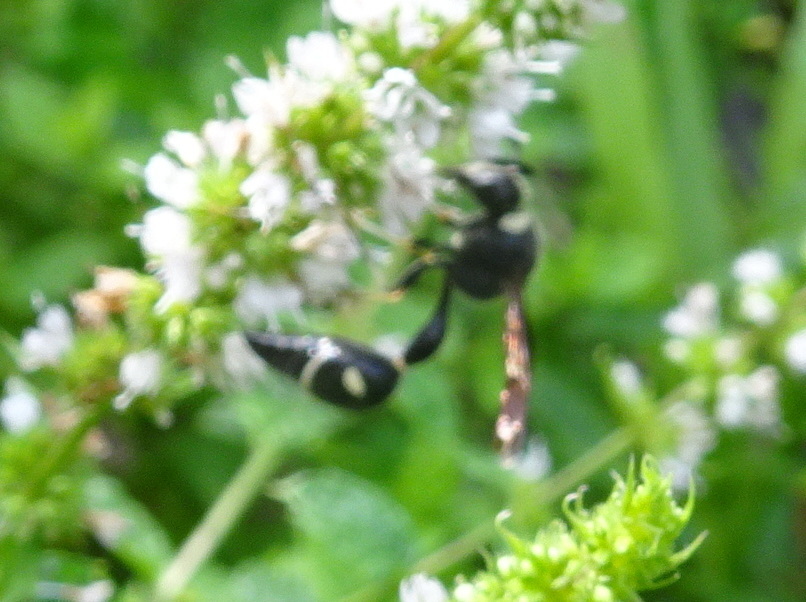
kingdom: Animalia
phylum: Arthropoda
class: Insecta
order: Hymenoptera
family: Vespidae
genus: Eumenes
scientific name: Eumenes fraternus
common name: Fraternal potter wasp
